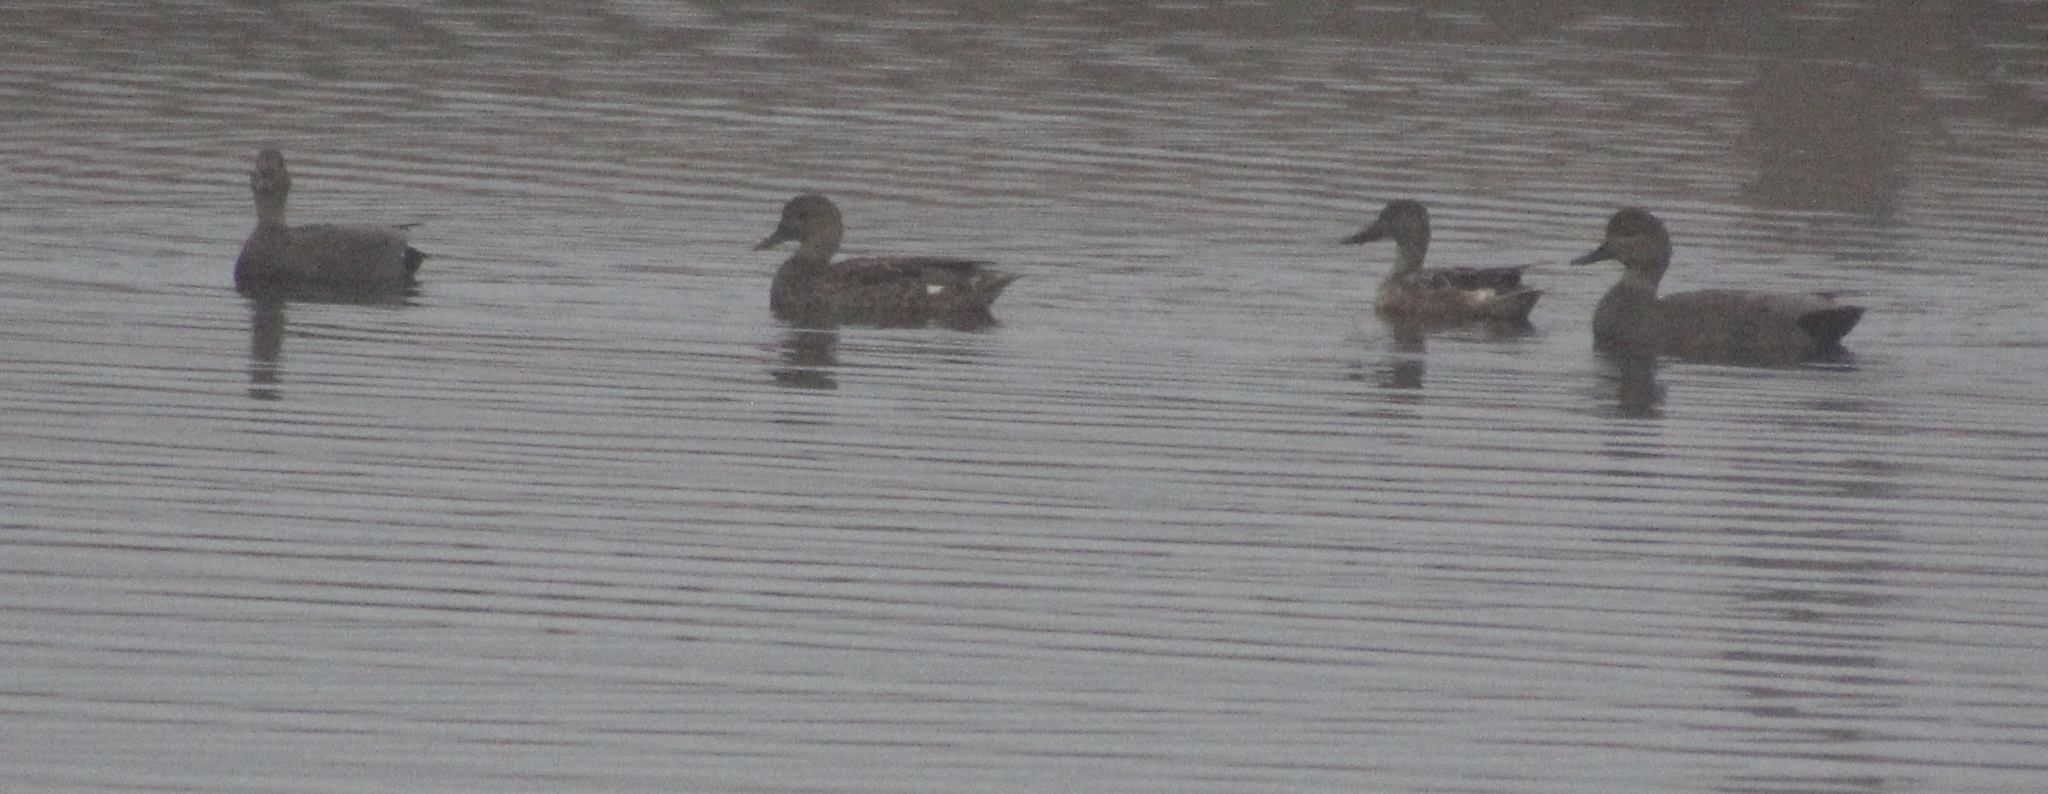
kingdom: Animalia
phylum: Chordata
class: Aves
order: Anseriformes
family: Anatidae
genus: Mareca
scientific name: Mareca strepera
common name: Gadwall
